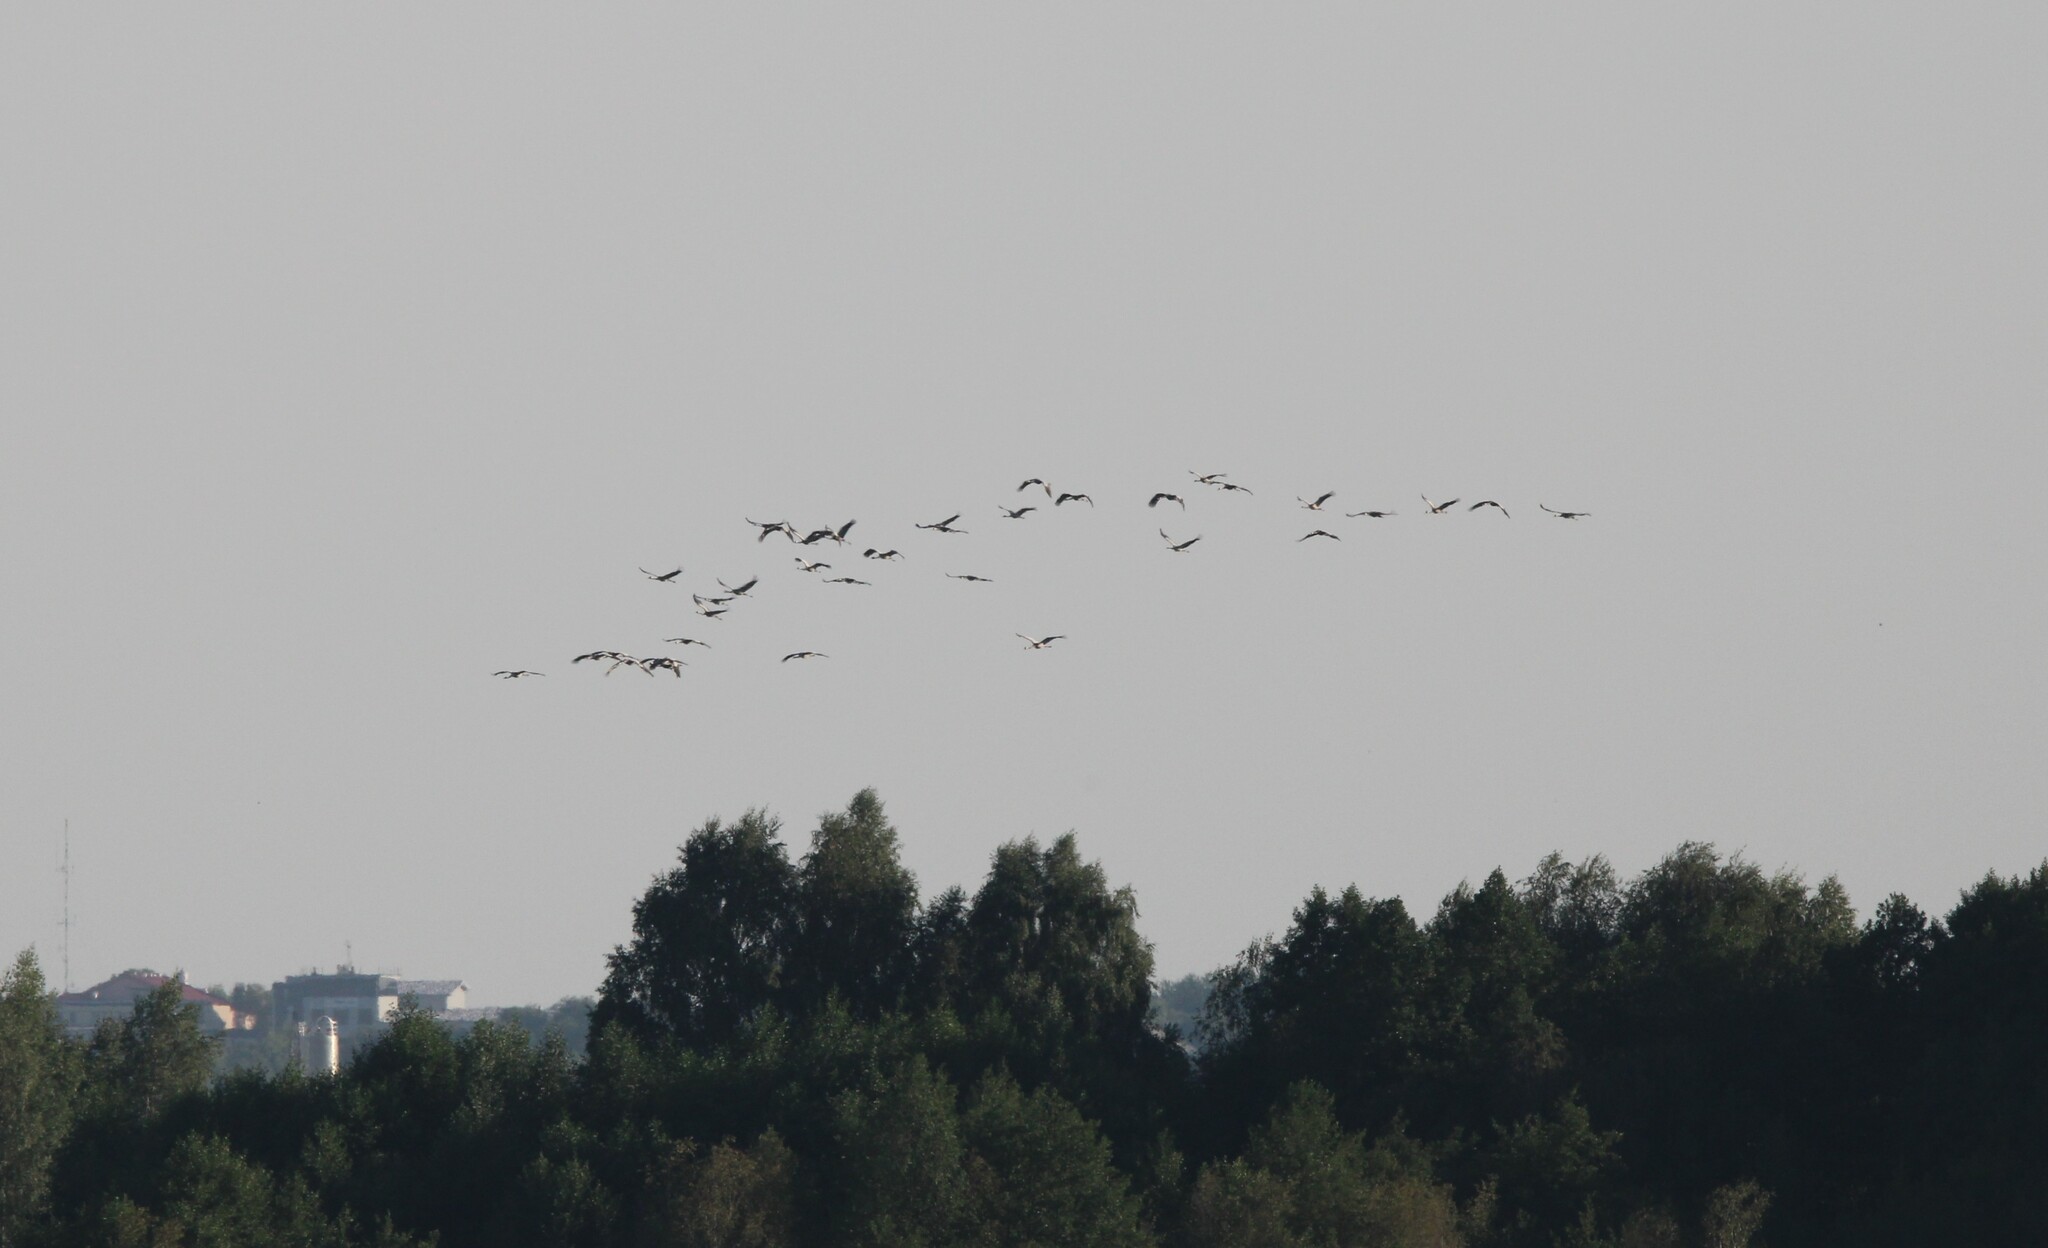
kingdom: Animalia
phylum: Chordata
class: Aves
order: Gruiformes
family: Gruidae
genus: Grus
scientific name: Grus grus
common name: Common crane
